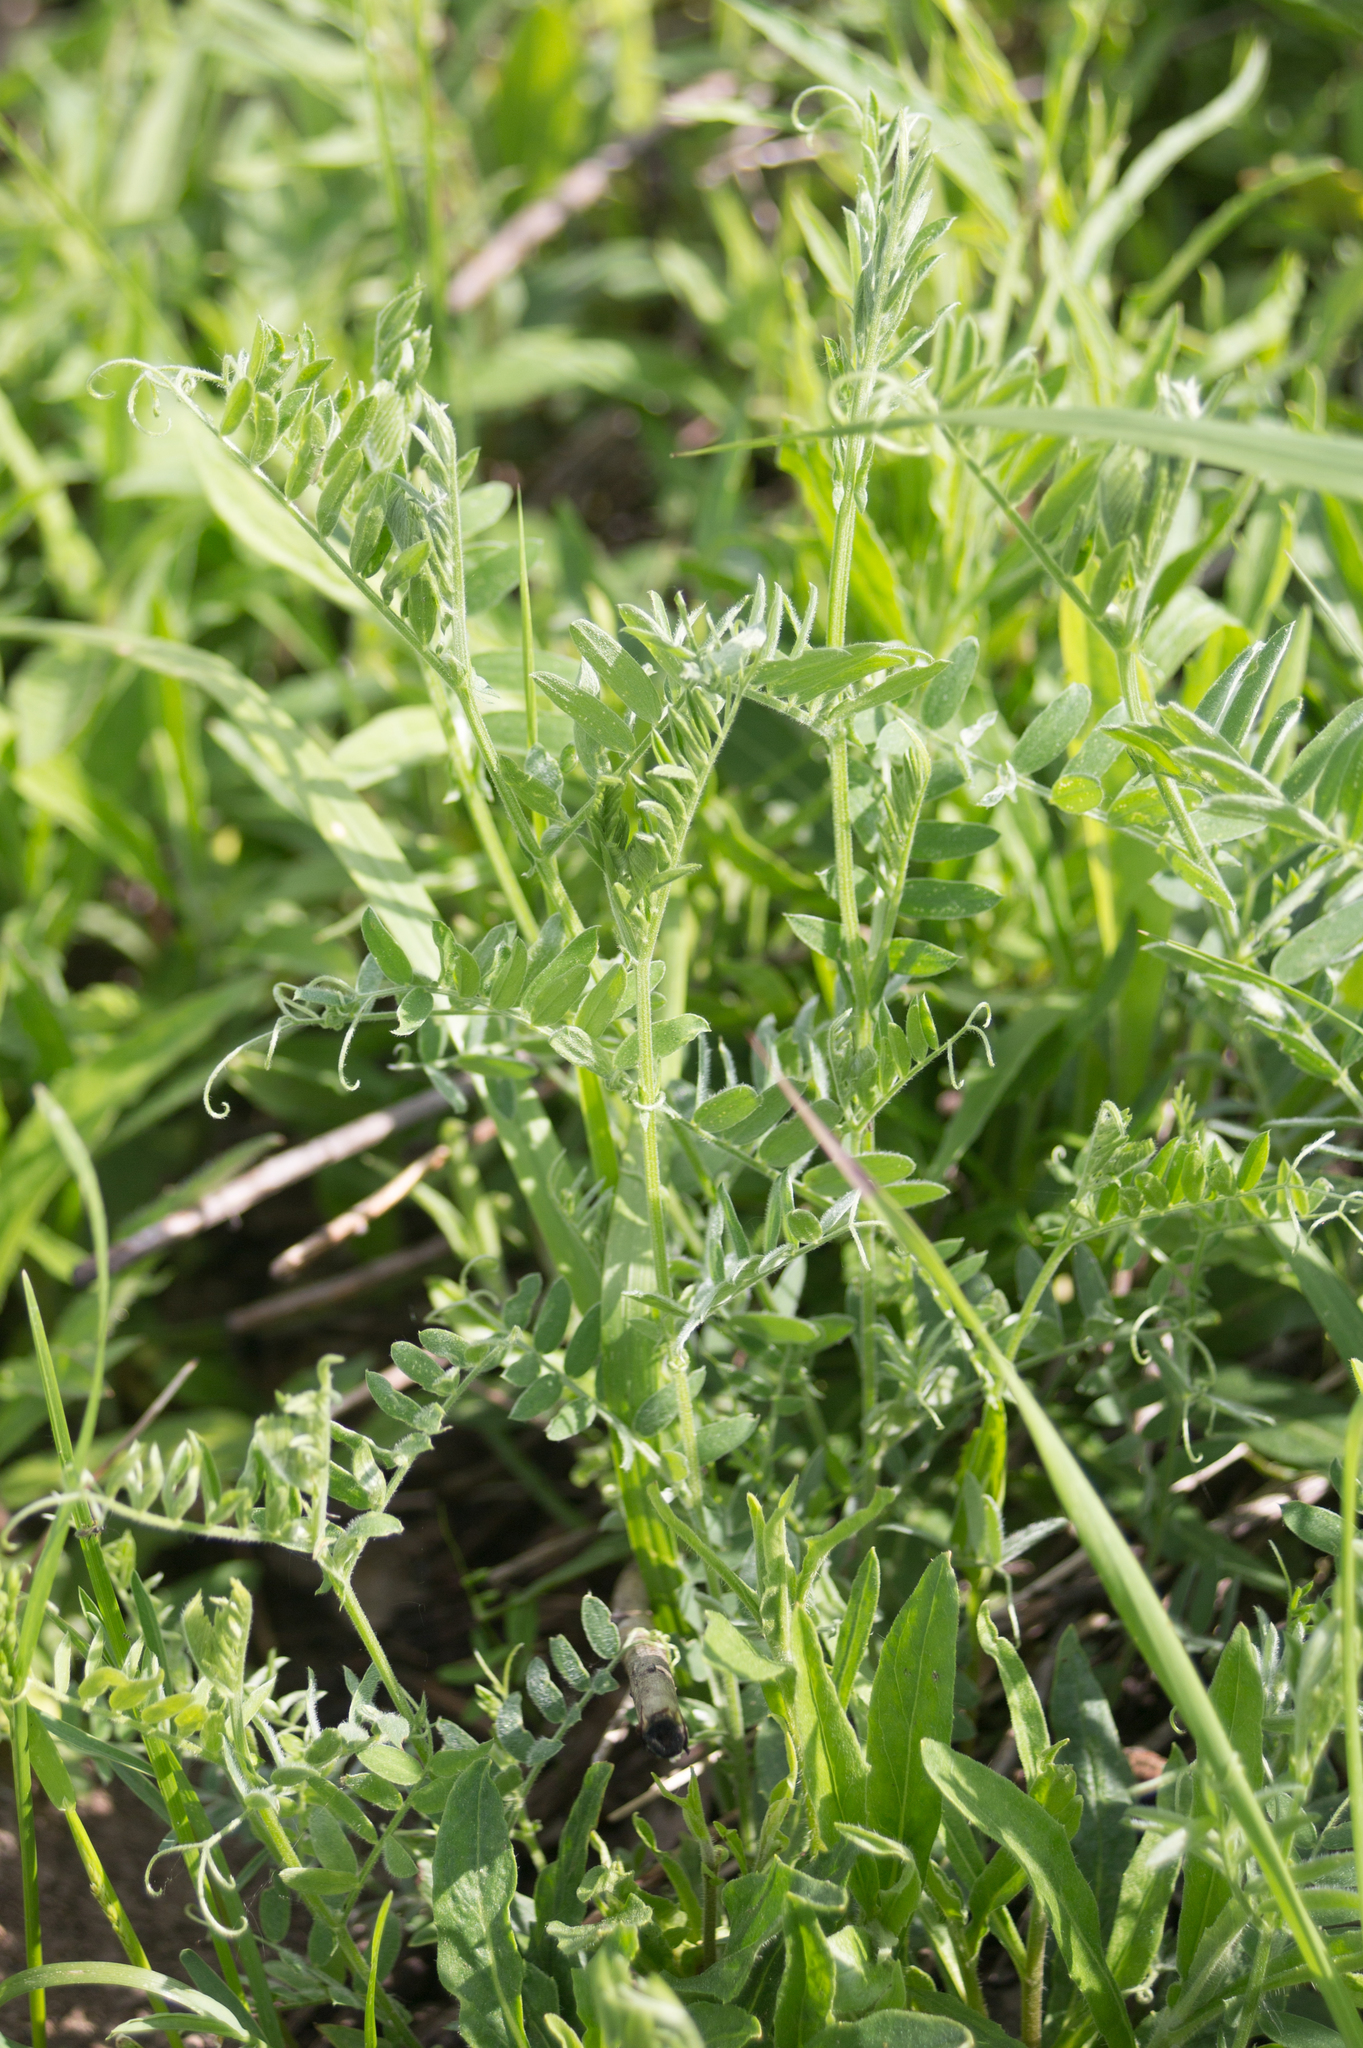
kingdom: Plantae
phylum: Tracheophyta
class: Magnoliopsida
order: Fabales
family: Fabaceae
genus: Vicia
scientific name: Vicia cracca
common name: Bird vetch
